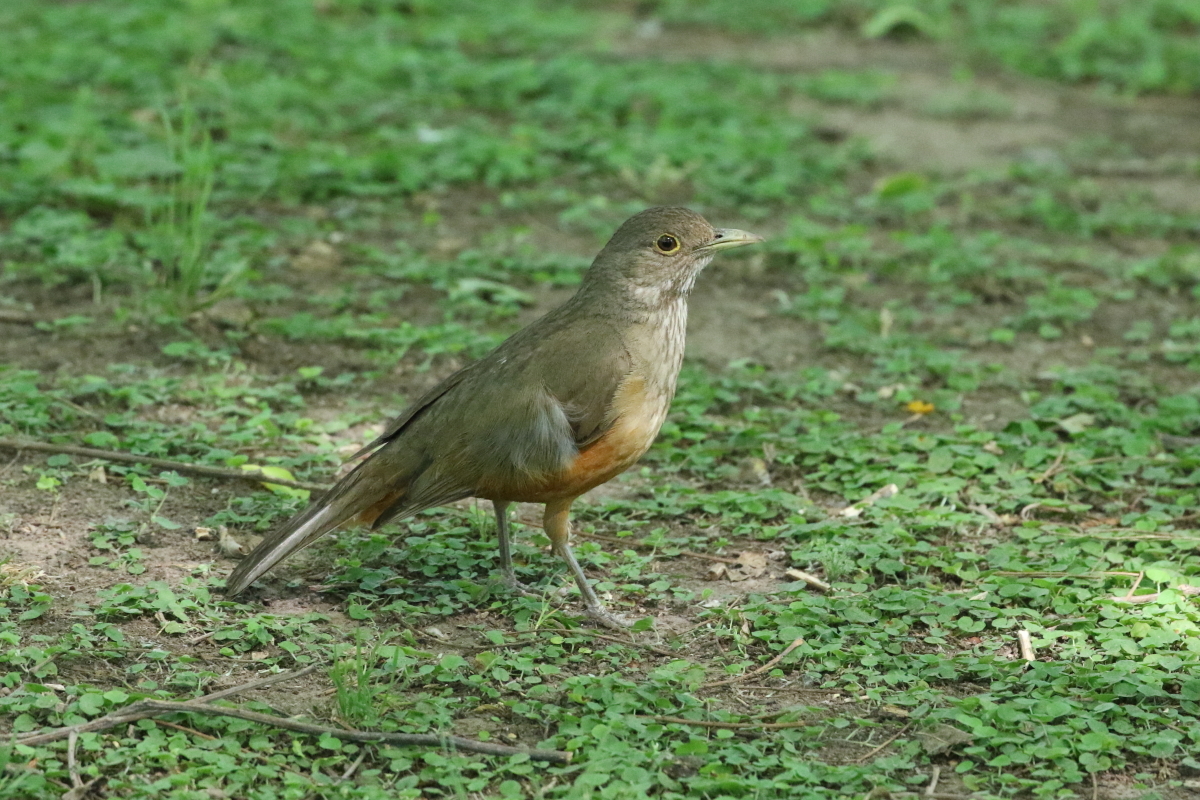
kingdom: Animalia
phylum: Chordata
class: Aves
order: Passeriformes
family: Turdidae
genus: Turdus
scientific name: Turdus rufiventris
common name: Rufous-bellied thrush
